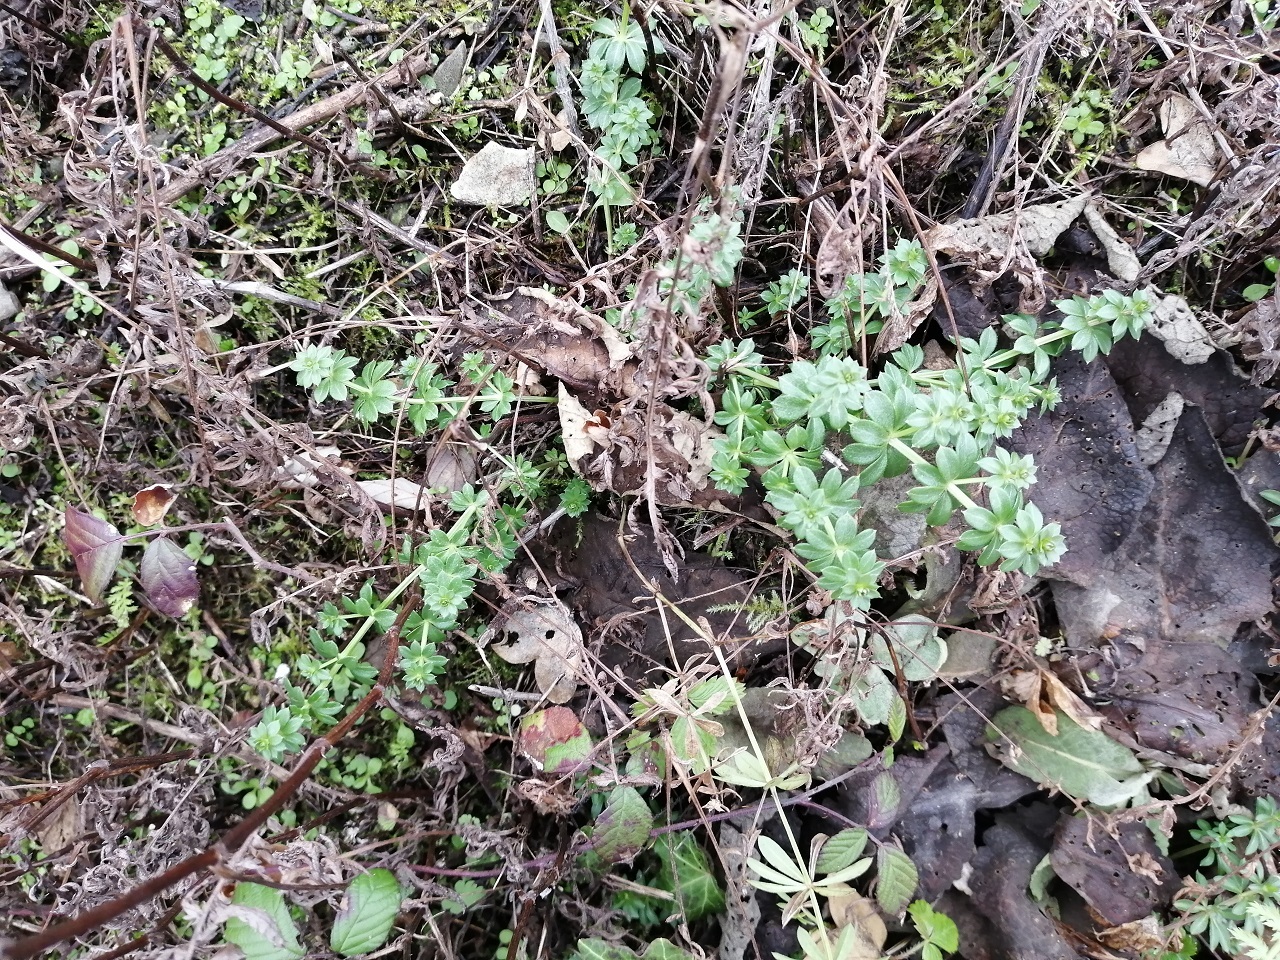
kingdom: Plantae
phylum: Tracheophyta
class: Magnoliopsida
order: Gentianales
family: Rubiaceae
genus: Galium
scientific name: Galium
